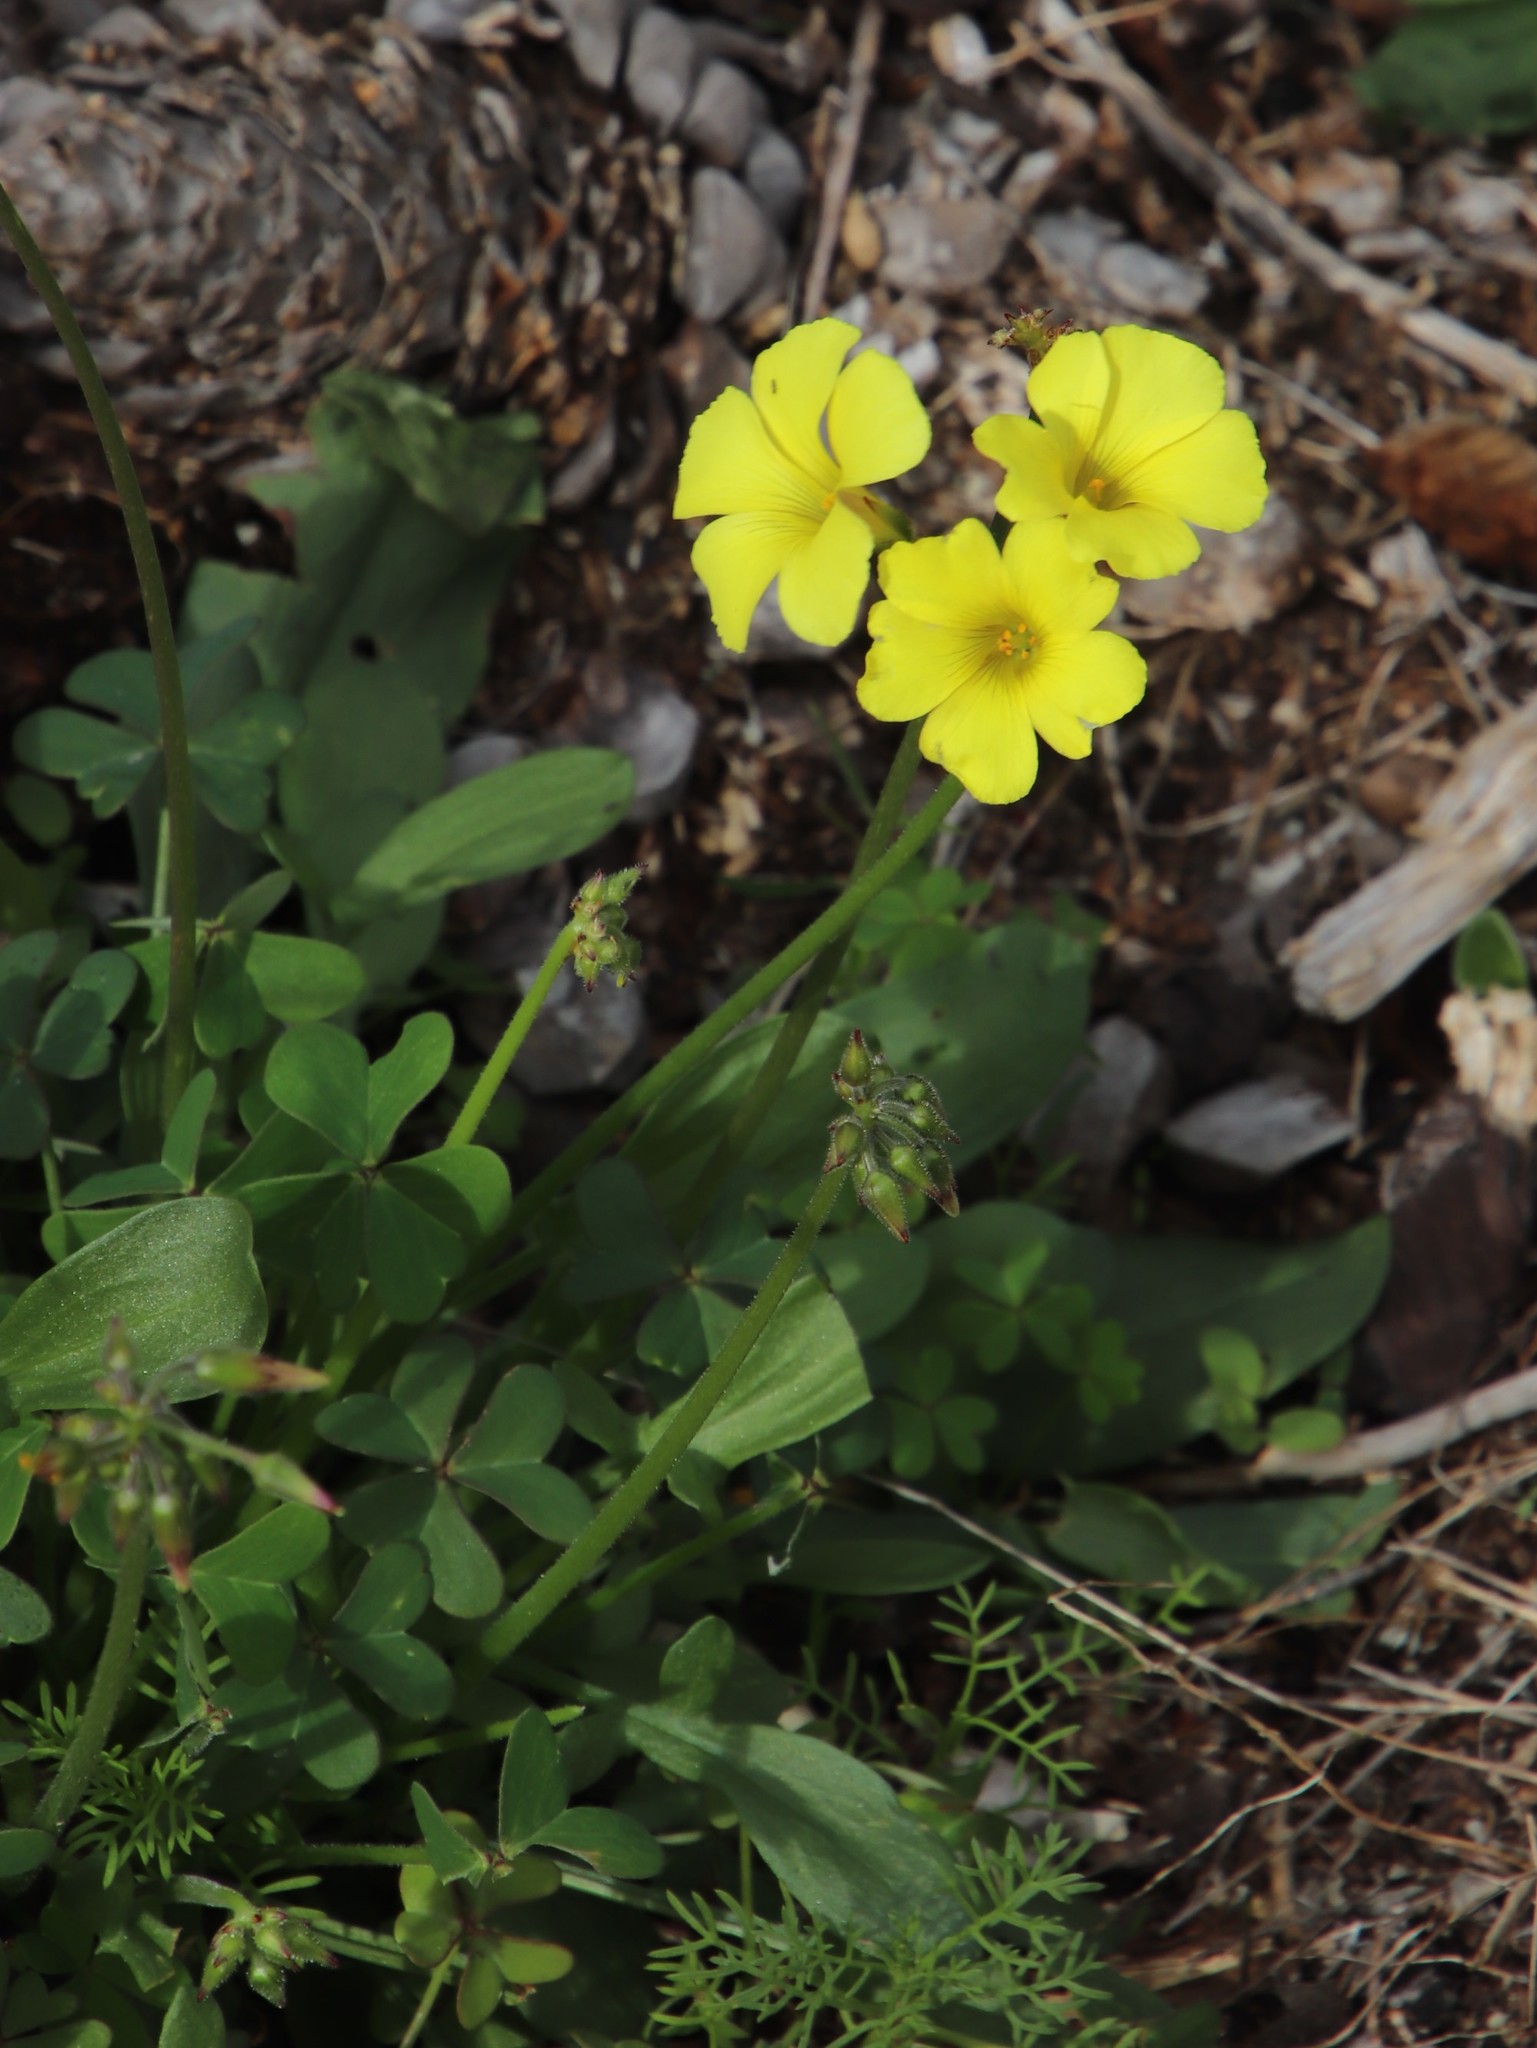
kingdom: Plantae
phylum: Tracheophyta
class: Magnoliopsida
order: Oxalidales
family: Oxalidaceae
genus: Oxalis
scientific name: Oxalis pes-caprae
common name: Bermuda-buttercup
